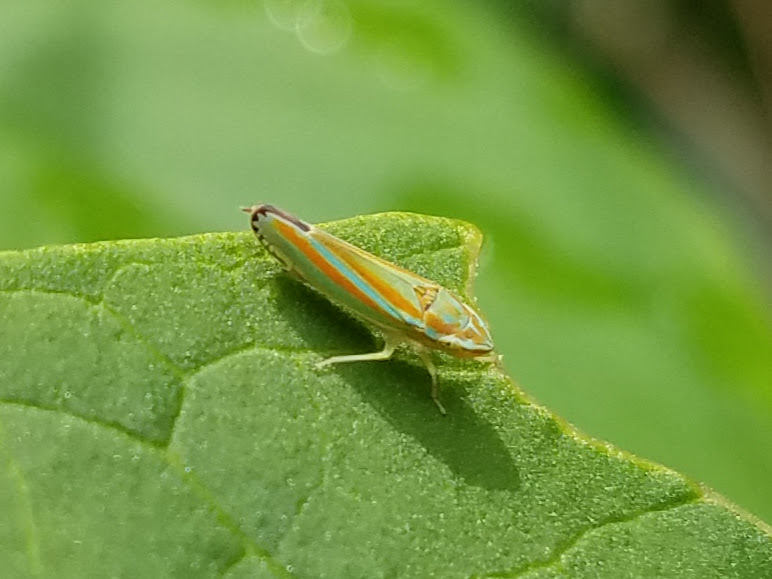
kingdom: Animalia
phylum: Arthropoda
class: Insecta
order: Hemiptera
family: Cicadellidae
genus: Graphocephala
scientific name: Graphocephala versuta
